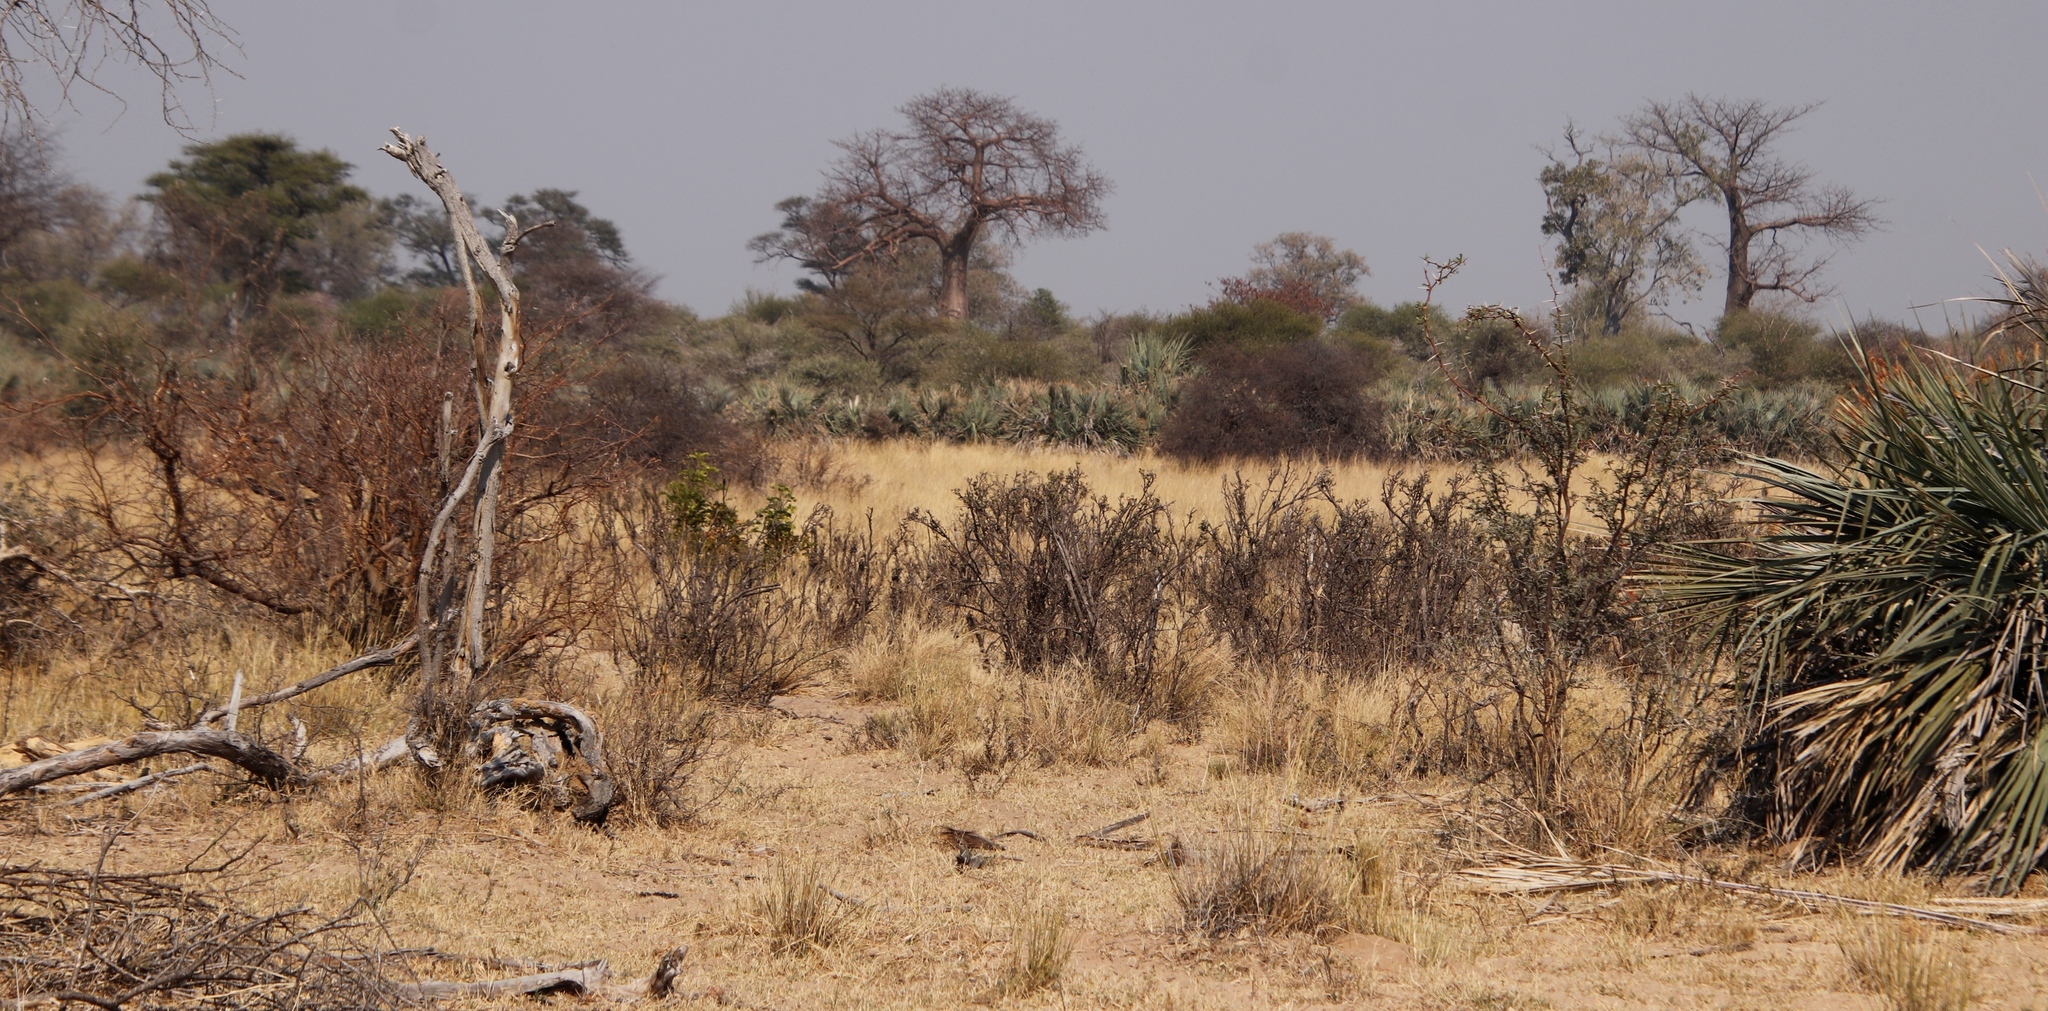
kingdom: Plantae
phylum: Tracheophyta
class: Magnoliopsida
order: Malvales
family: Malvaceae
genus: Adansonia
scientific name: Adansonia digitata
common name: Dead-rat-tree
